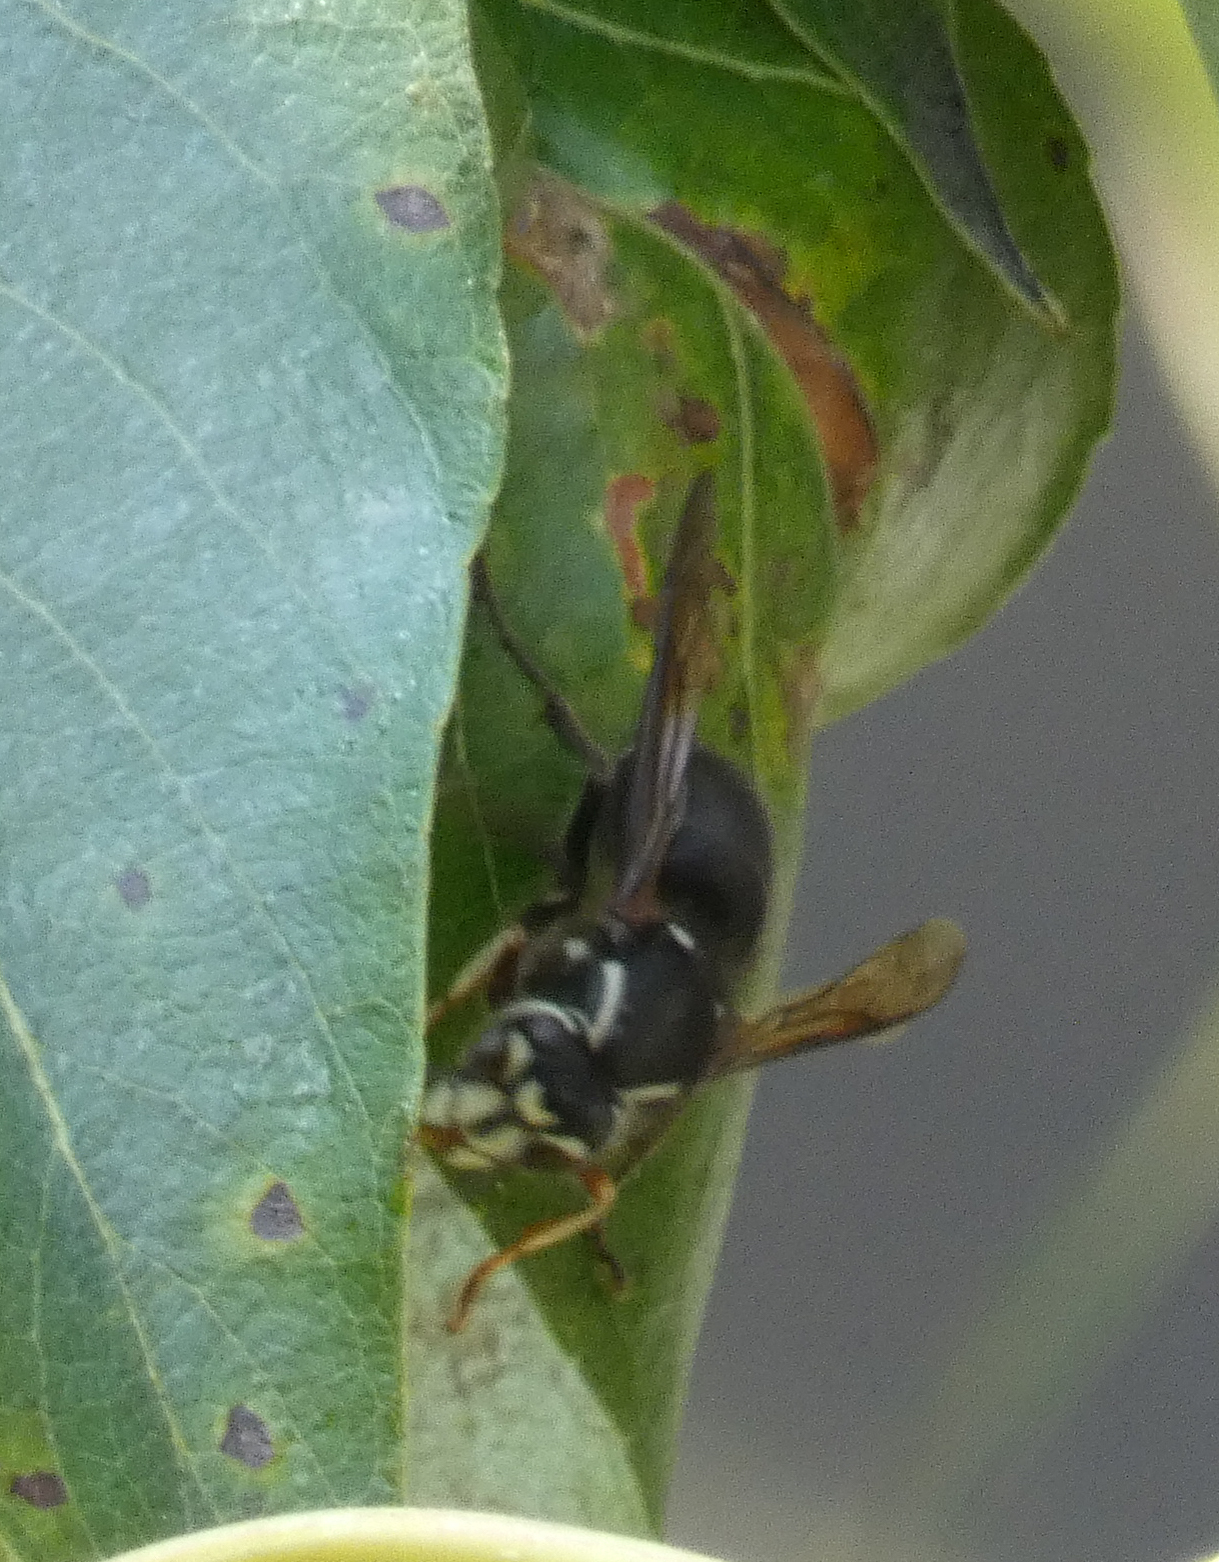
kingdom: Animalia
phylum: Arthropoda
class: Insecta
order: Hymenoptera
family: Vespidae
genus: Dolichovespula
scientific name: Dolichovespula maculata
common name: Bald-faced hornet
